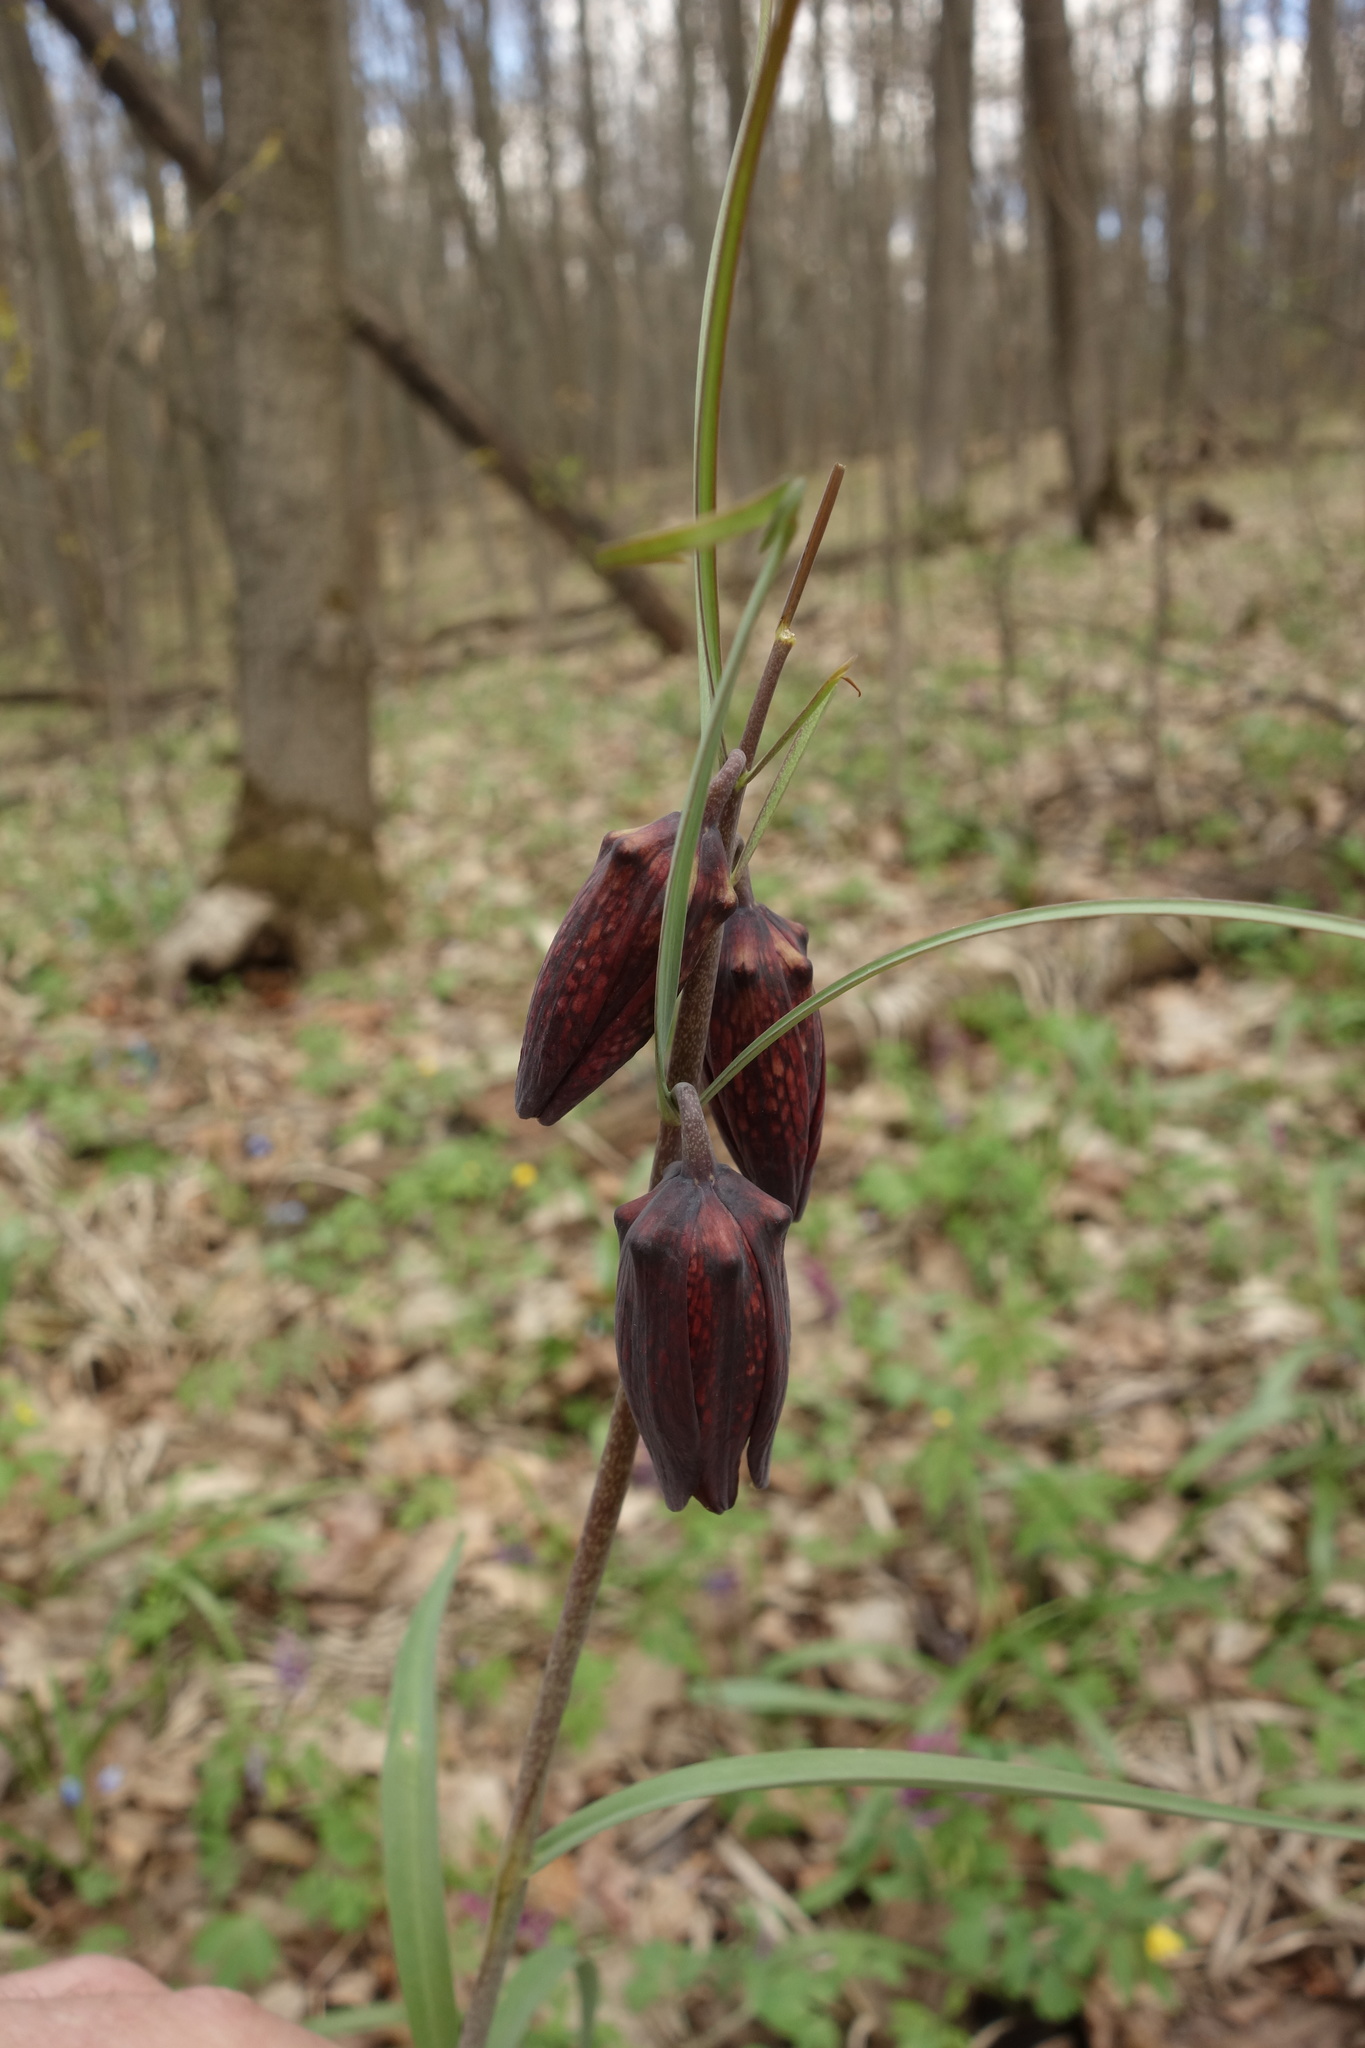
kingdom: Plantae
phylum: Tracheophyta
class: Liliopsida
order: Liliales
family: Liliaceae
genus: Fritillaria
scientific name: Fritillaria ruthenica
